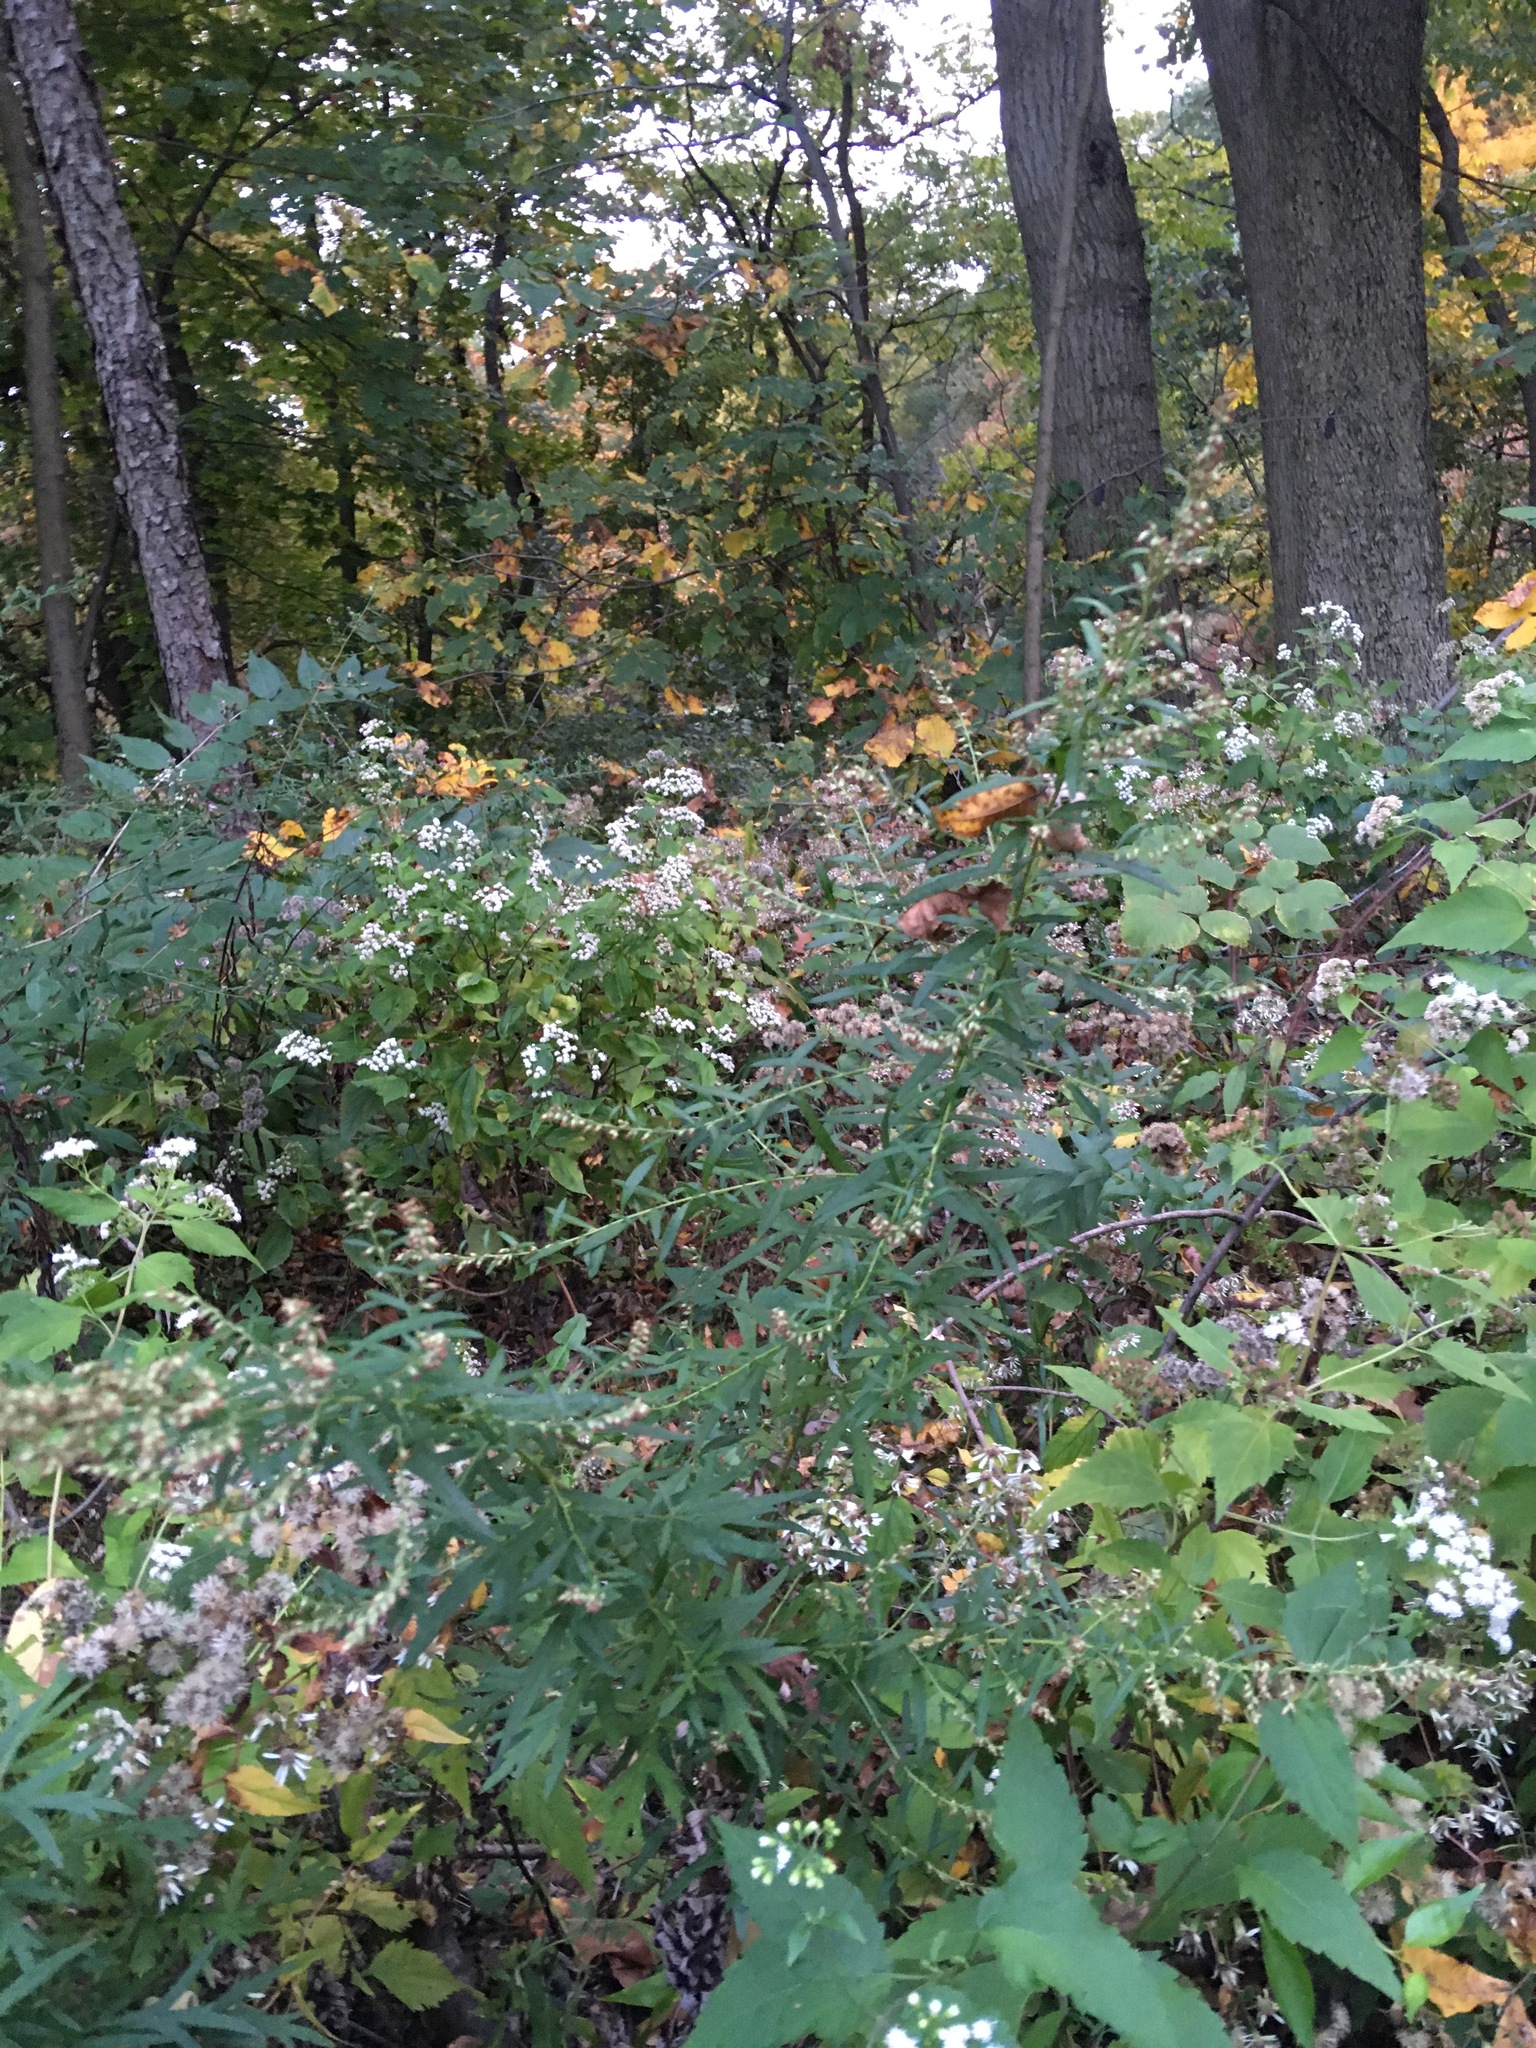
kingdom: Plantae
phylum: Tracheophyta
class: Magnoliopsida
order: Asterales
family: Asteraceae
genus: Artemisia
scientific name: Artemisia vulgaris
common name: Mugwort
